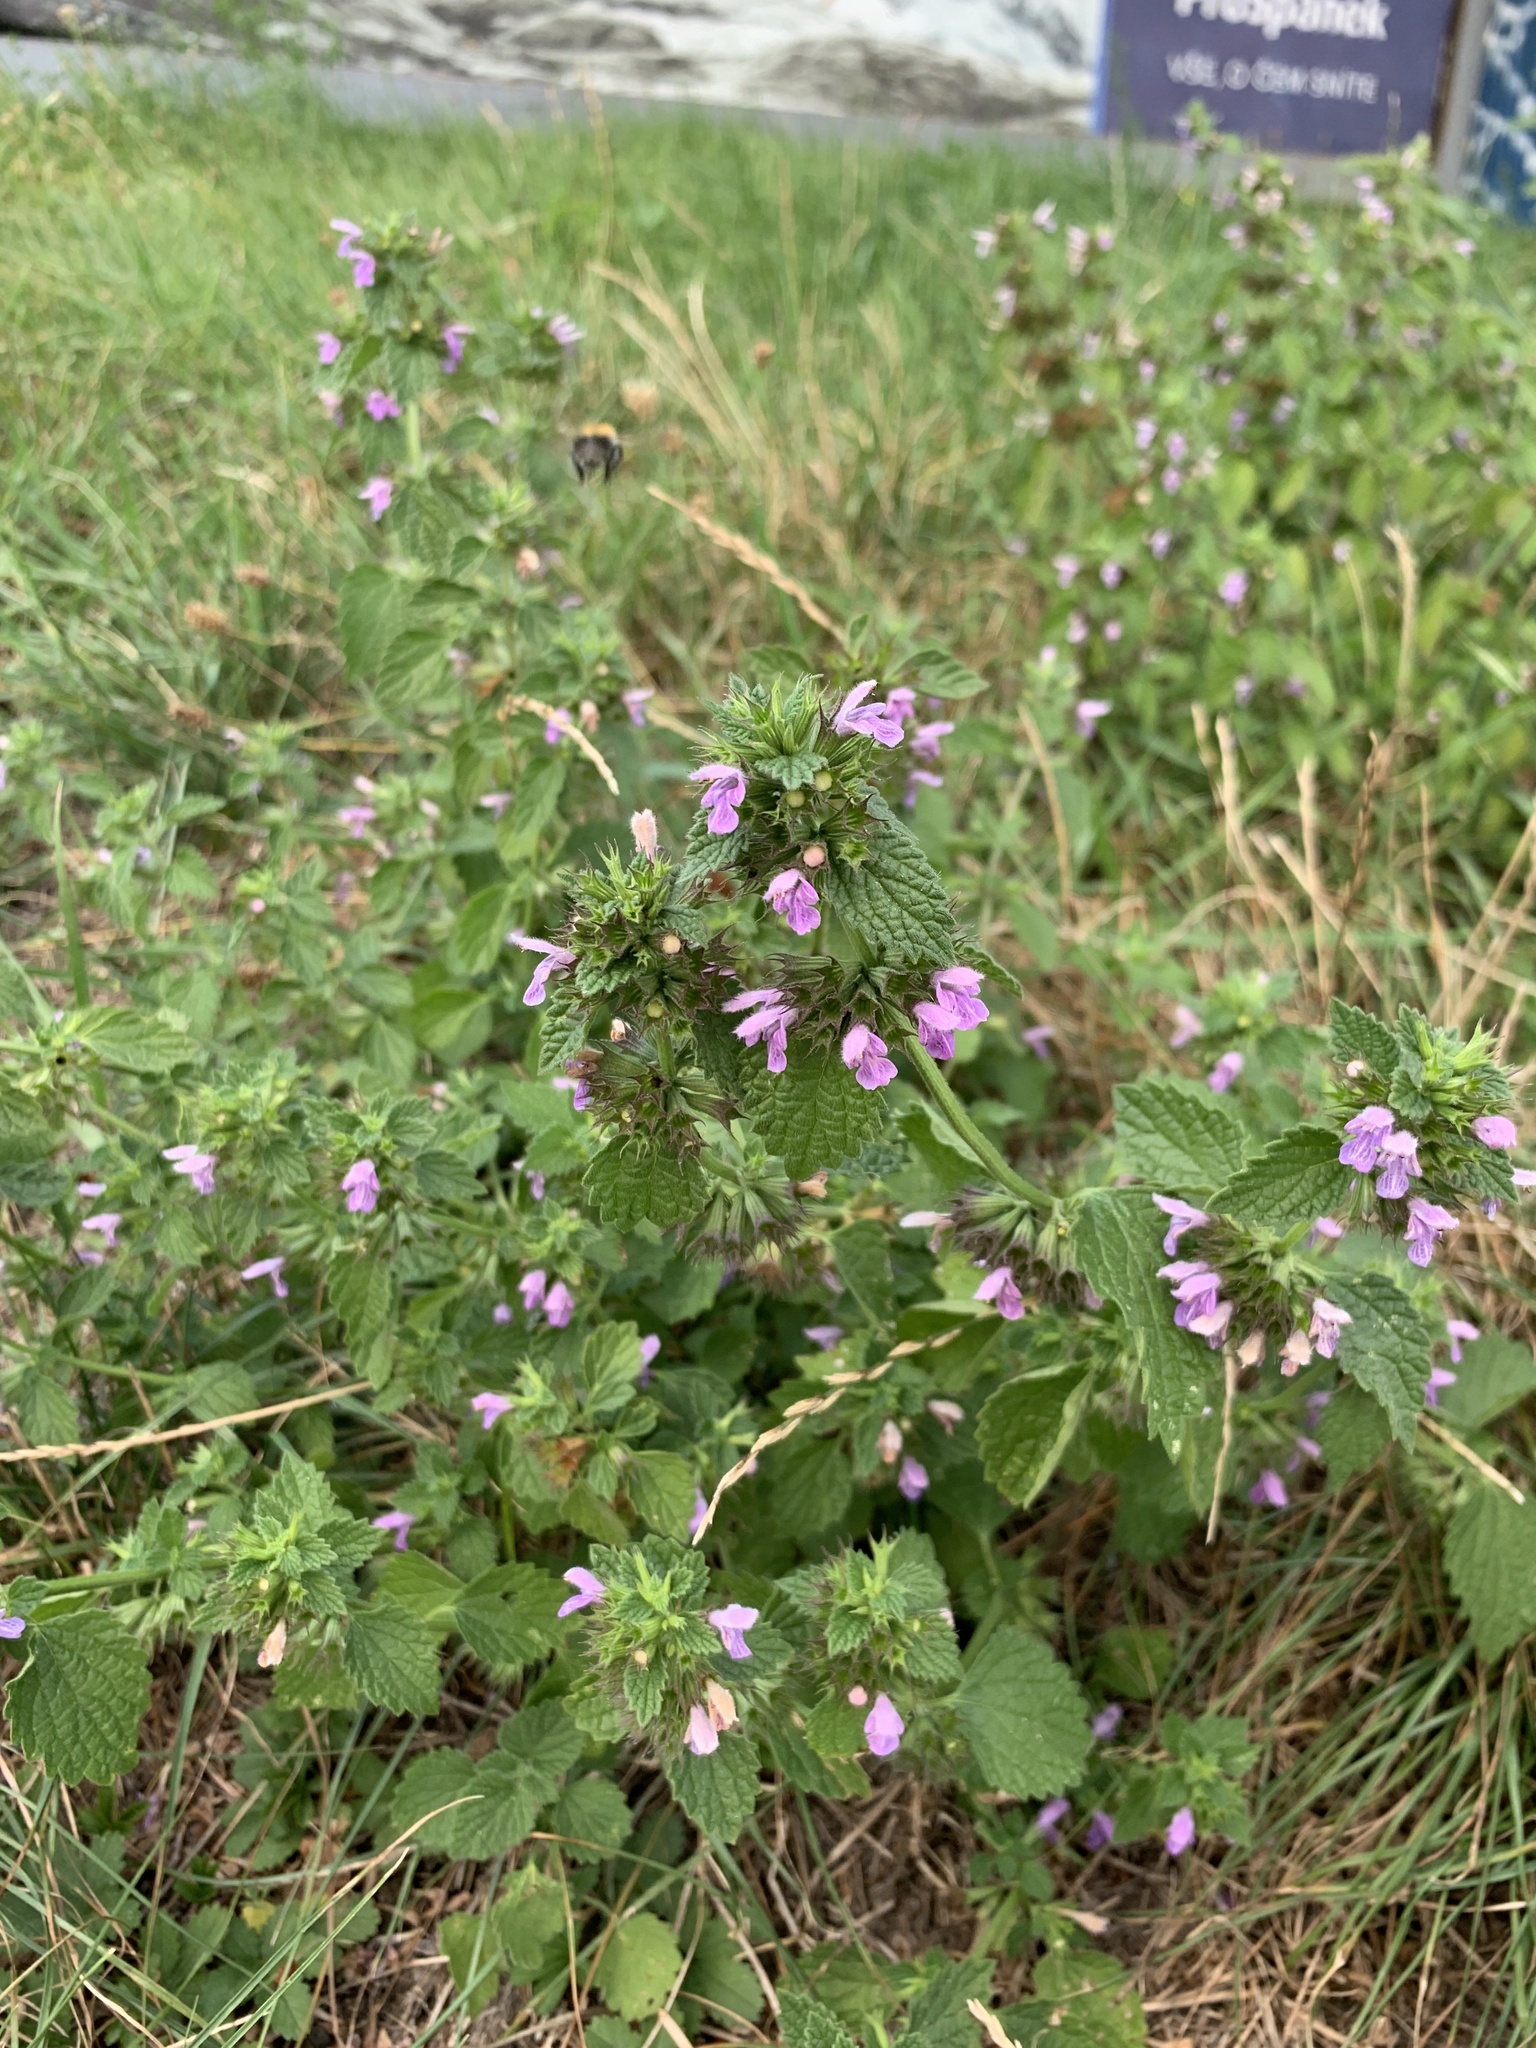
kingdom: Plantae
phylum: Tracheophyta
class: Magnoliopsida
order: Lamiales
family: Lamiaceae
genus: Ballota
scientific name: Ballota nigra
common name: Black horehound
